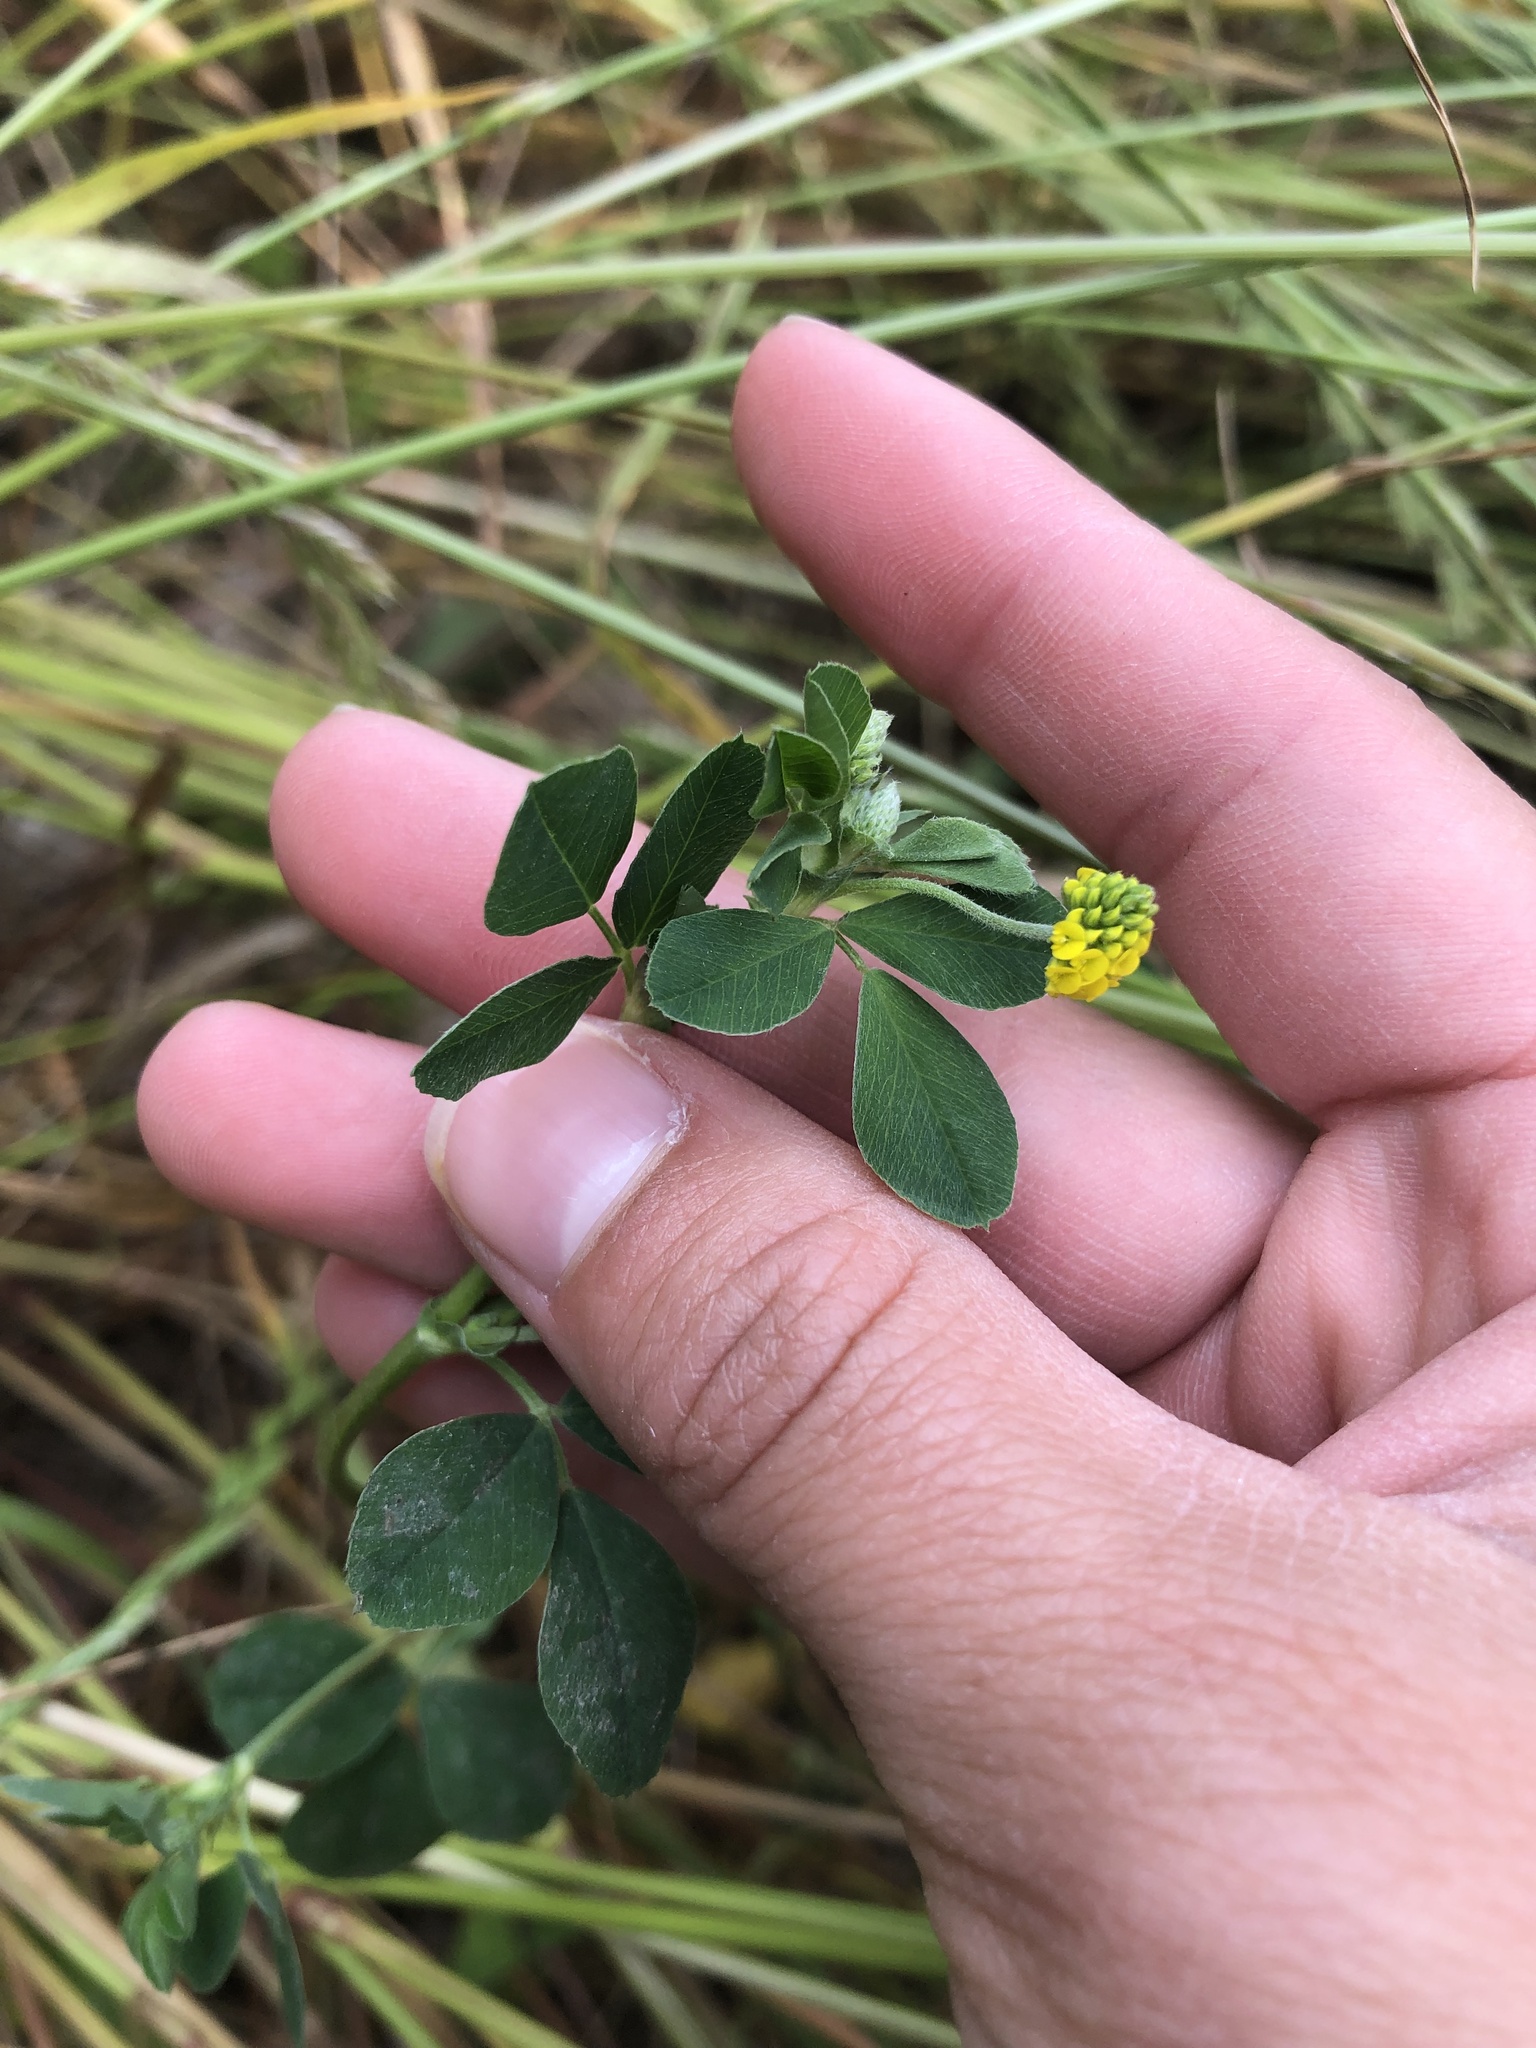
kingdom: Plantae
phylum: Tracheophyta
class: Magnoliopsida
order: Fabales
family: Fabaceae
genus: Medicago
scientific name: Medicago lupulina
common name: Black medick
